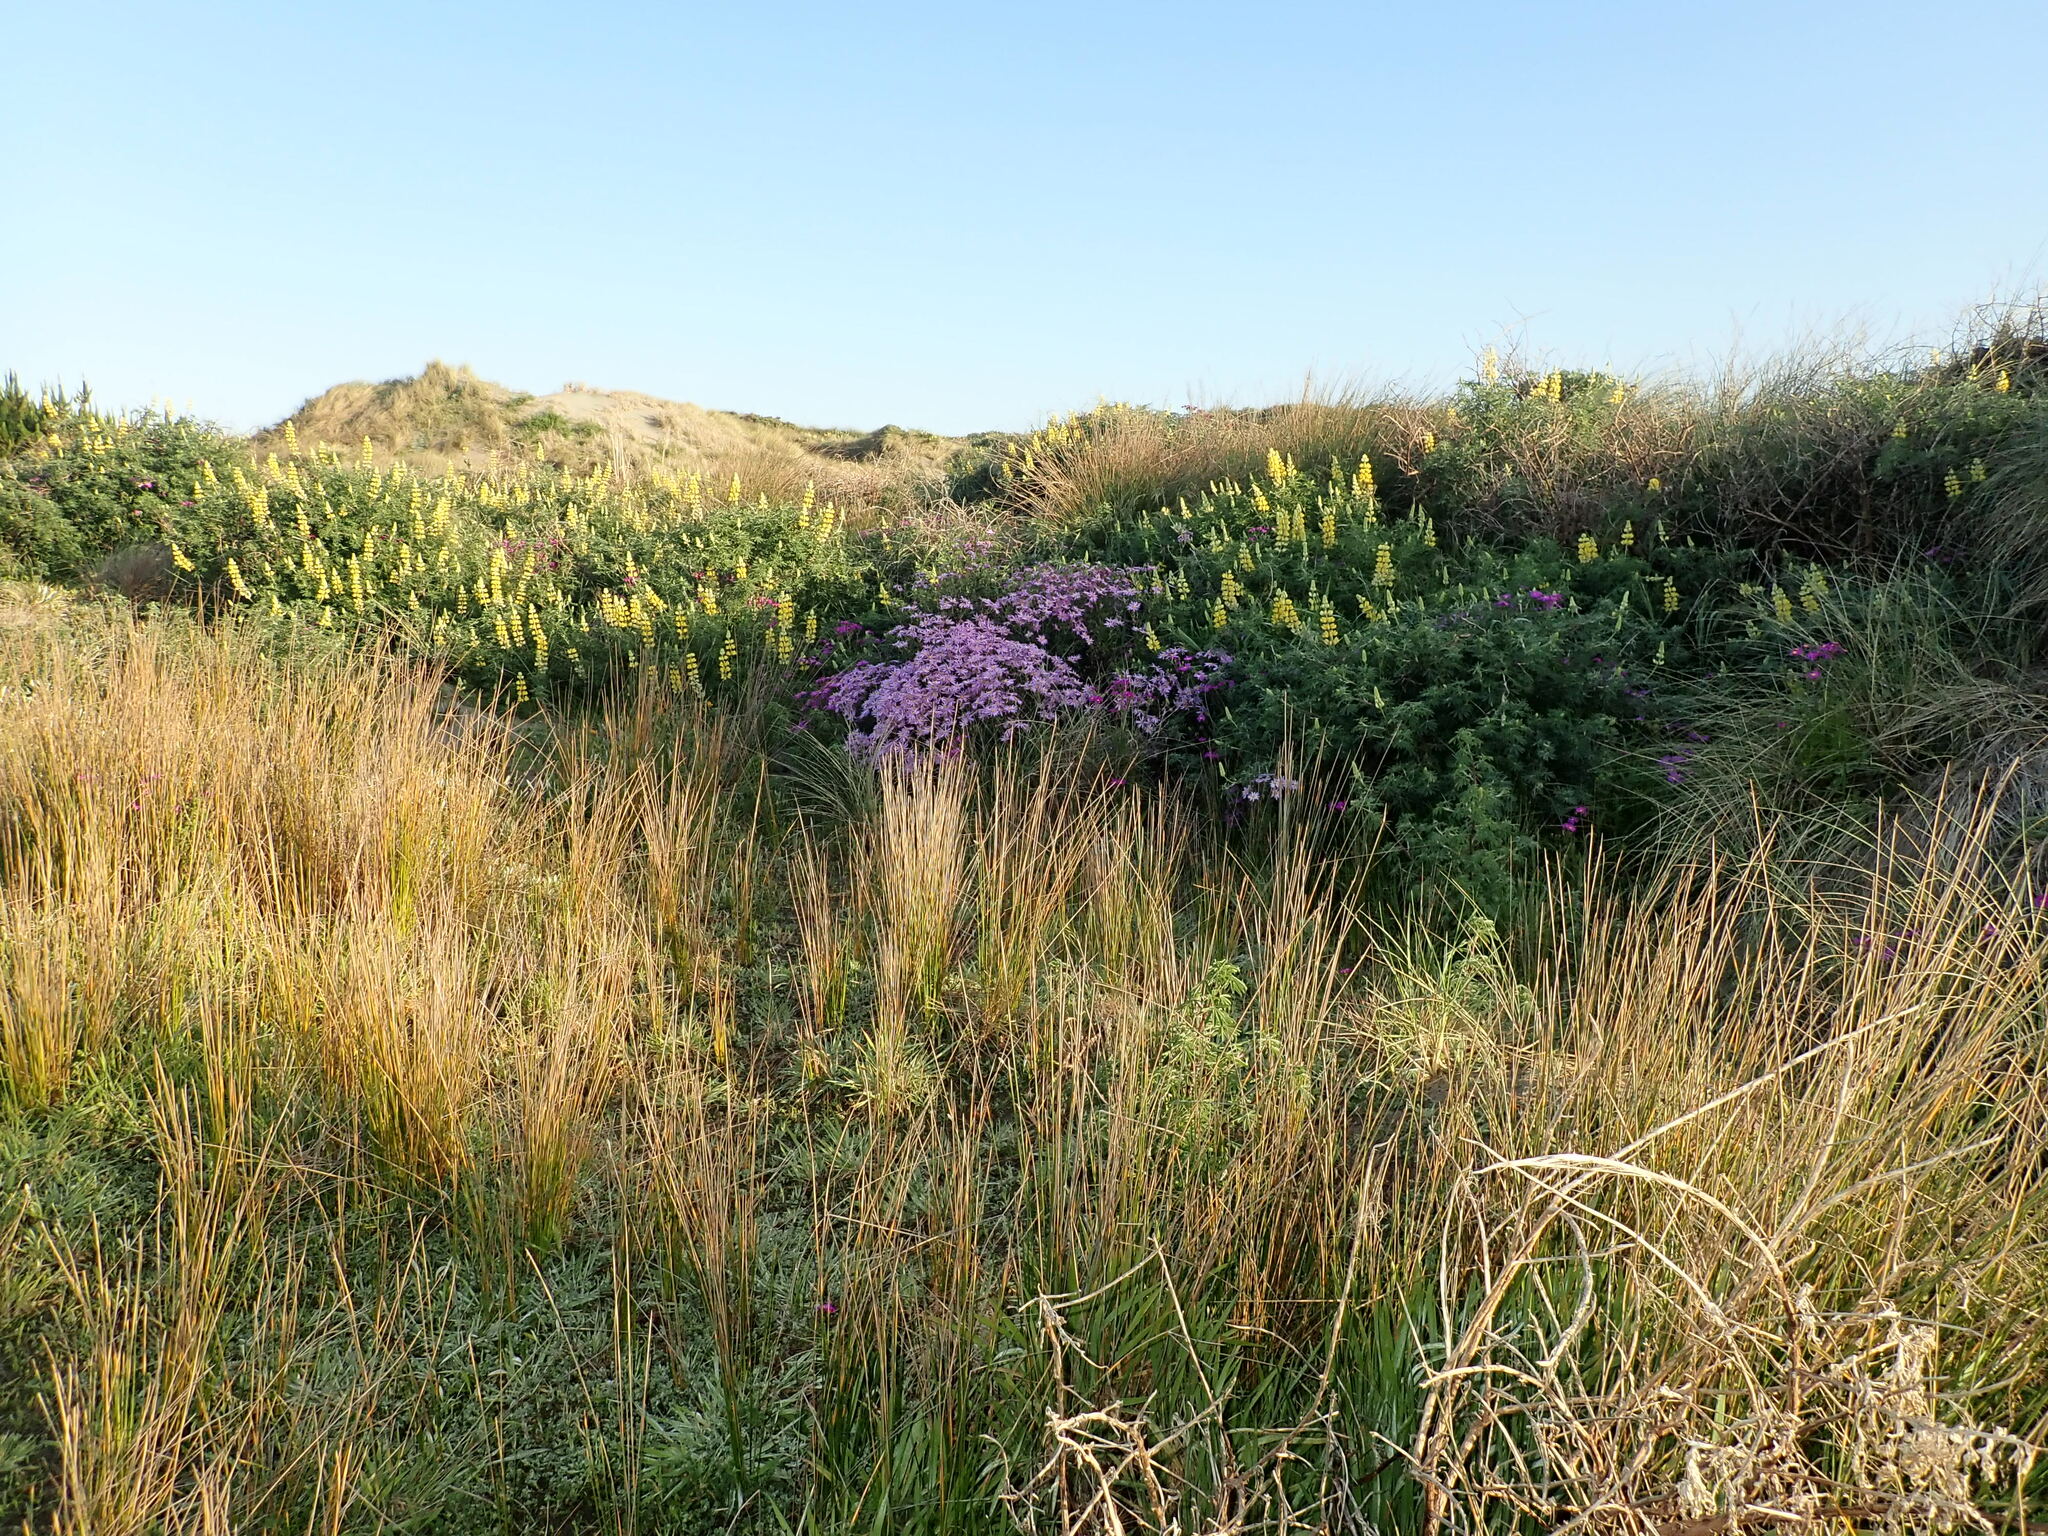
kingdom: Plantae
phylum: Tracheophyta
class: Magnoliopsida
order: Asterales
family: Asteraceae
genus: Senecio
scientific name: Senecio glastifolius
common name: Woad-leaved ragwort
